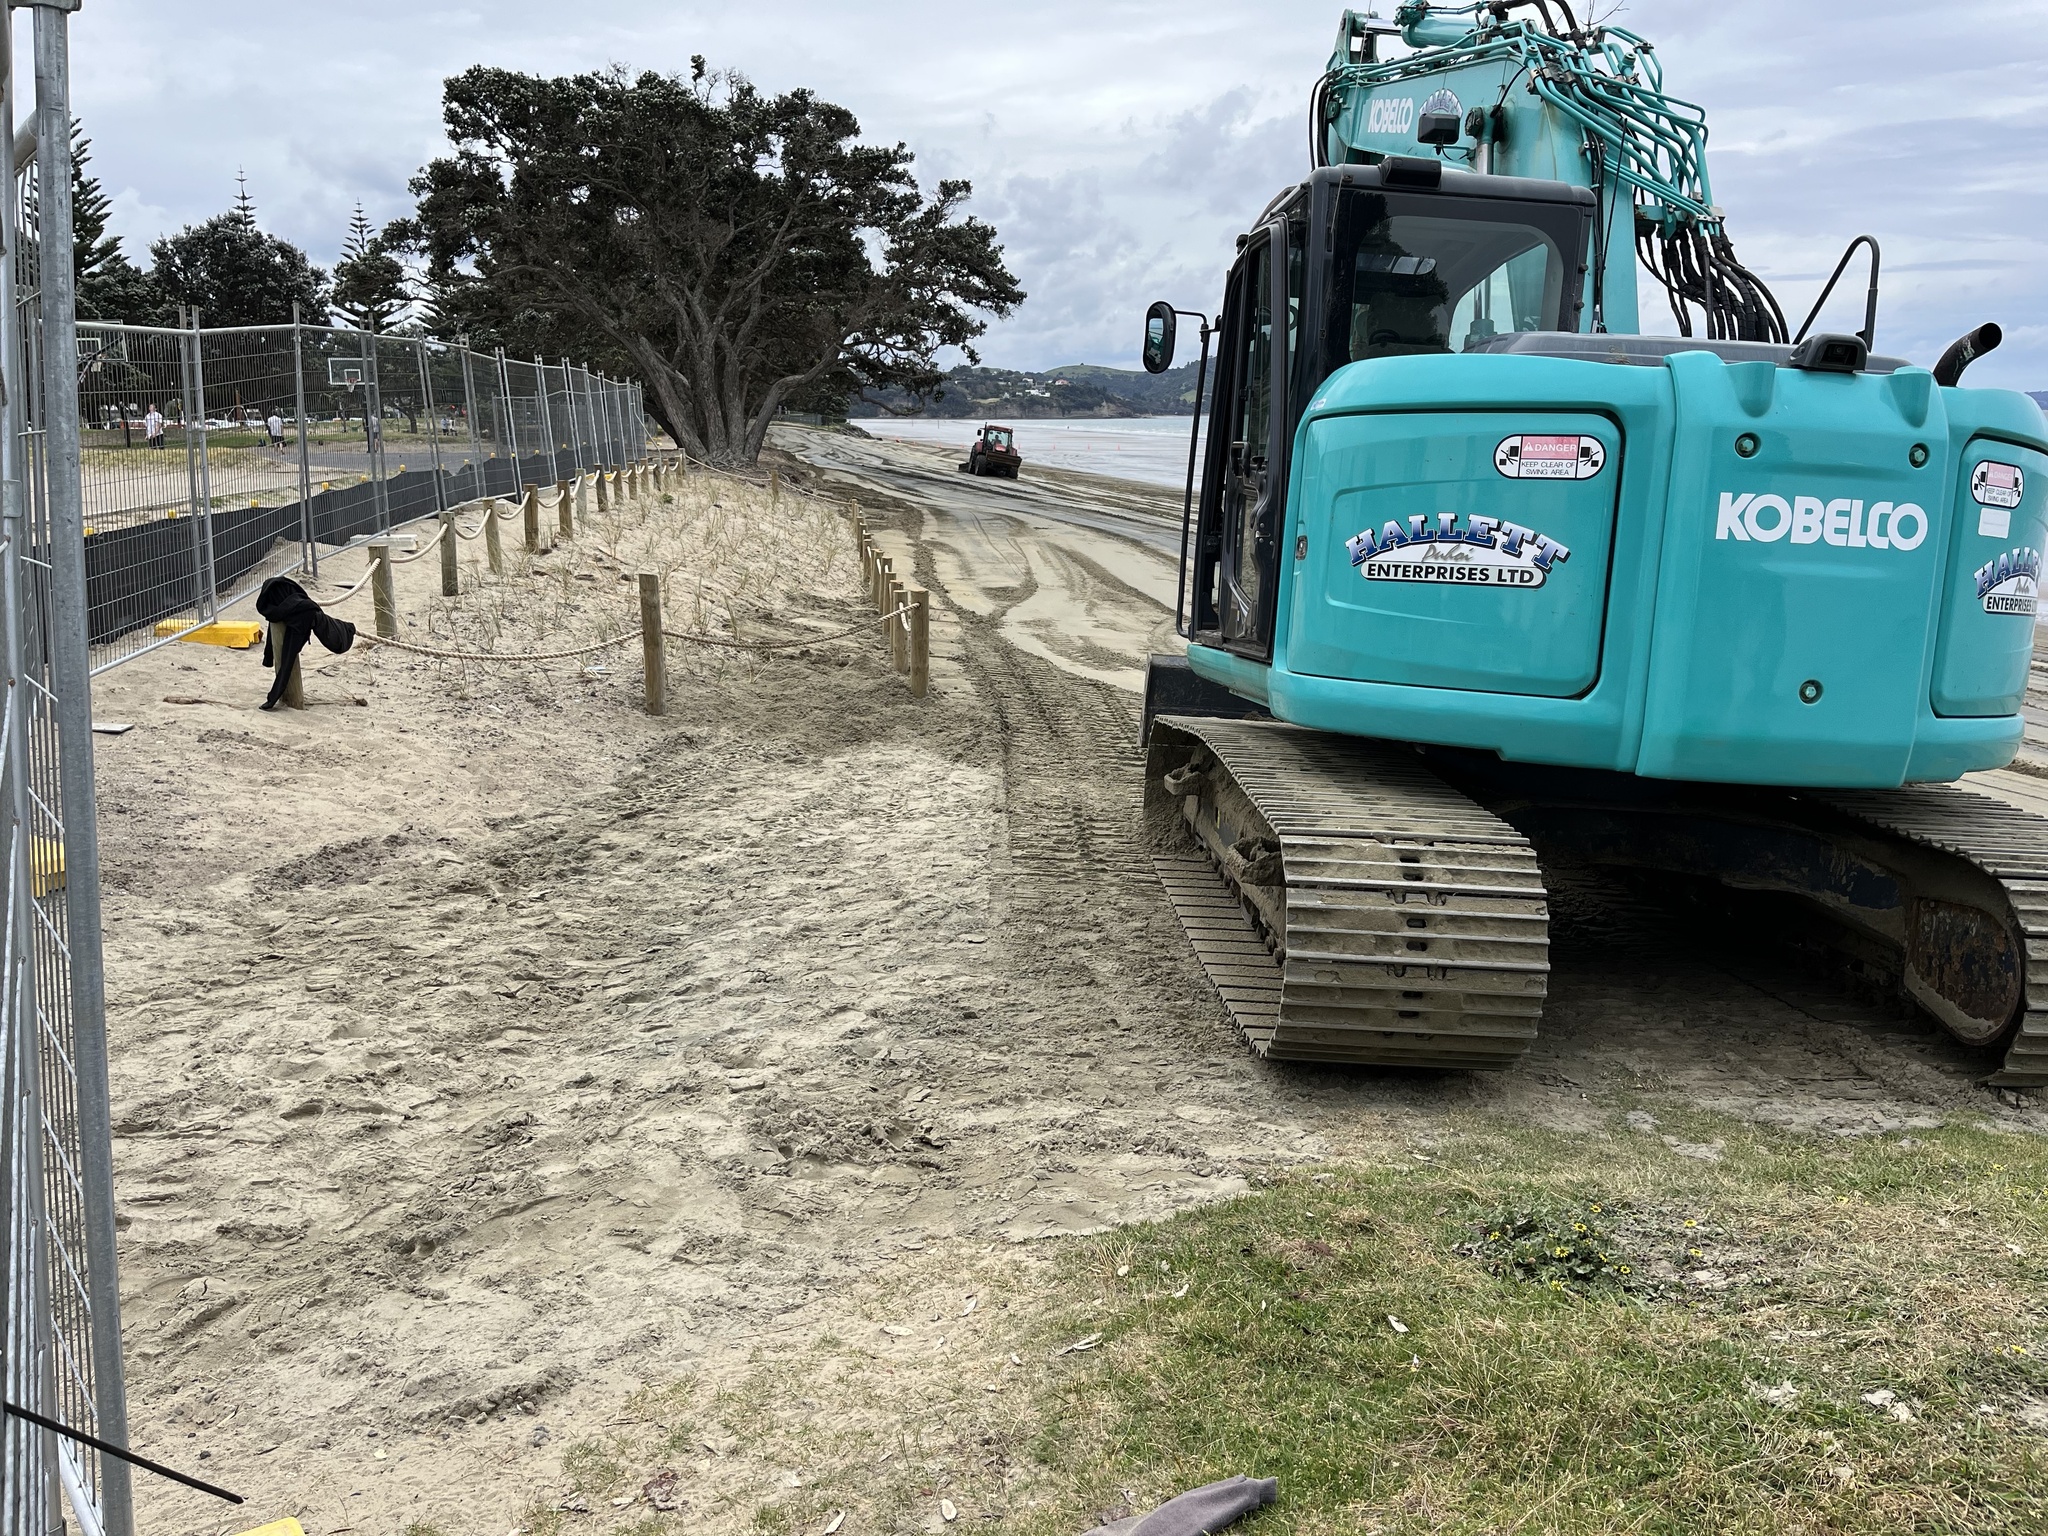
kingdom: Plantae
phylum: Tracheophyta
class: Liliopsida
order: Poales
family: Poaceae
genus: Spinifex
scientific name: Spinifex sericeus
